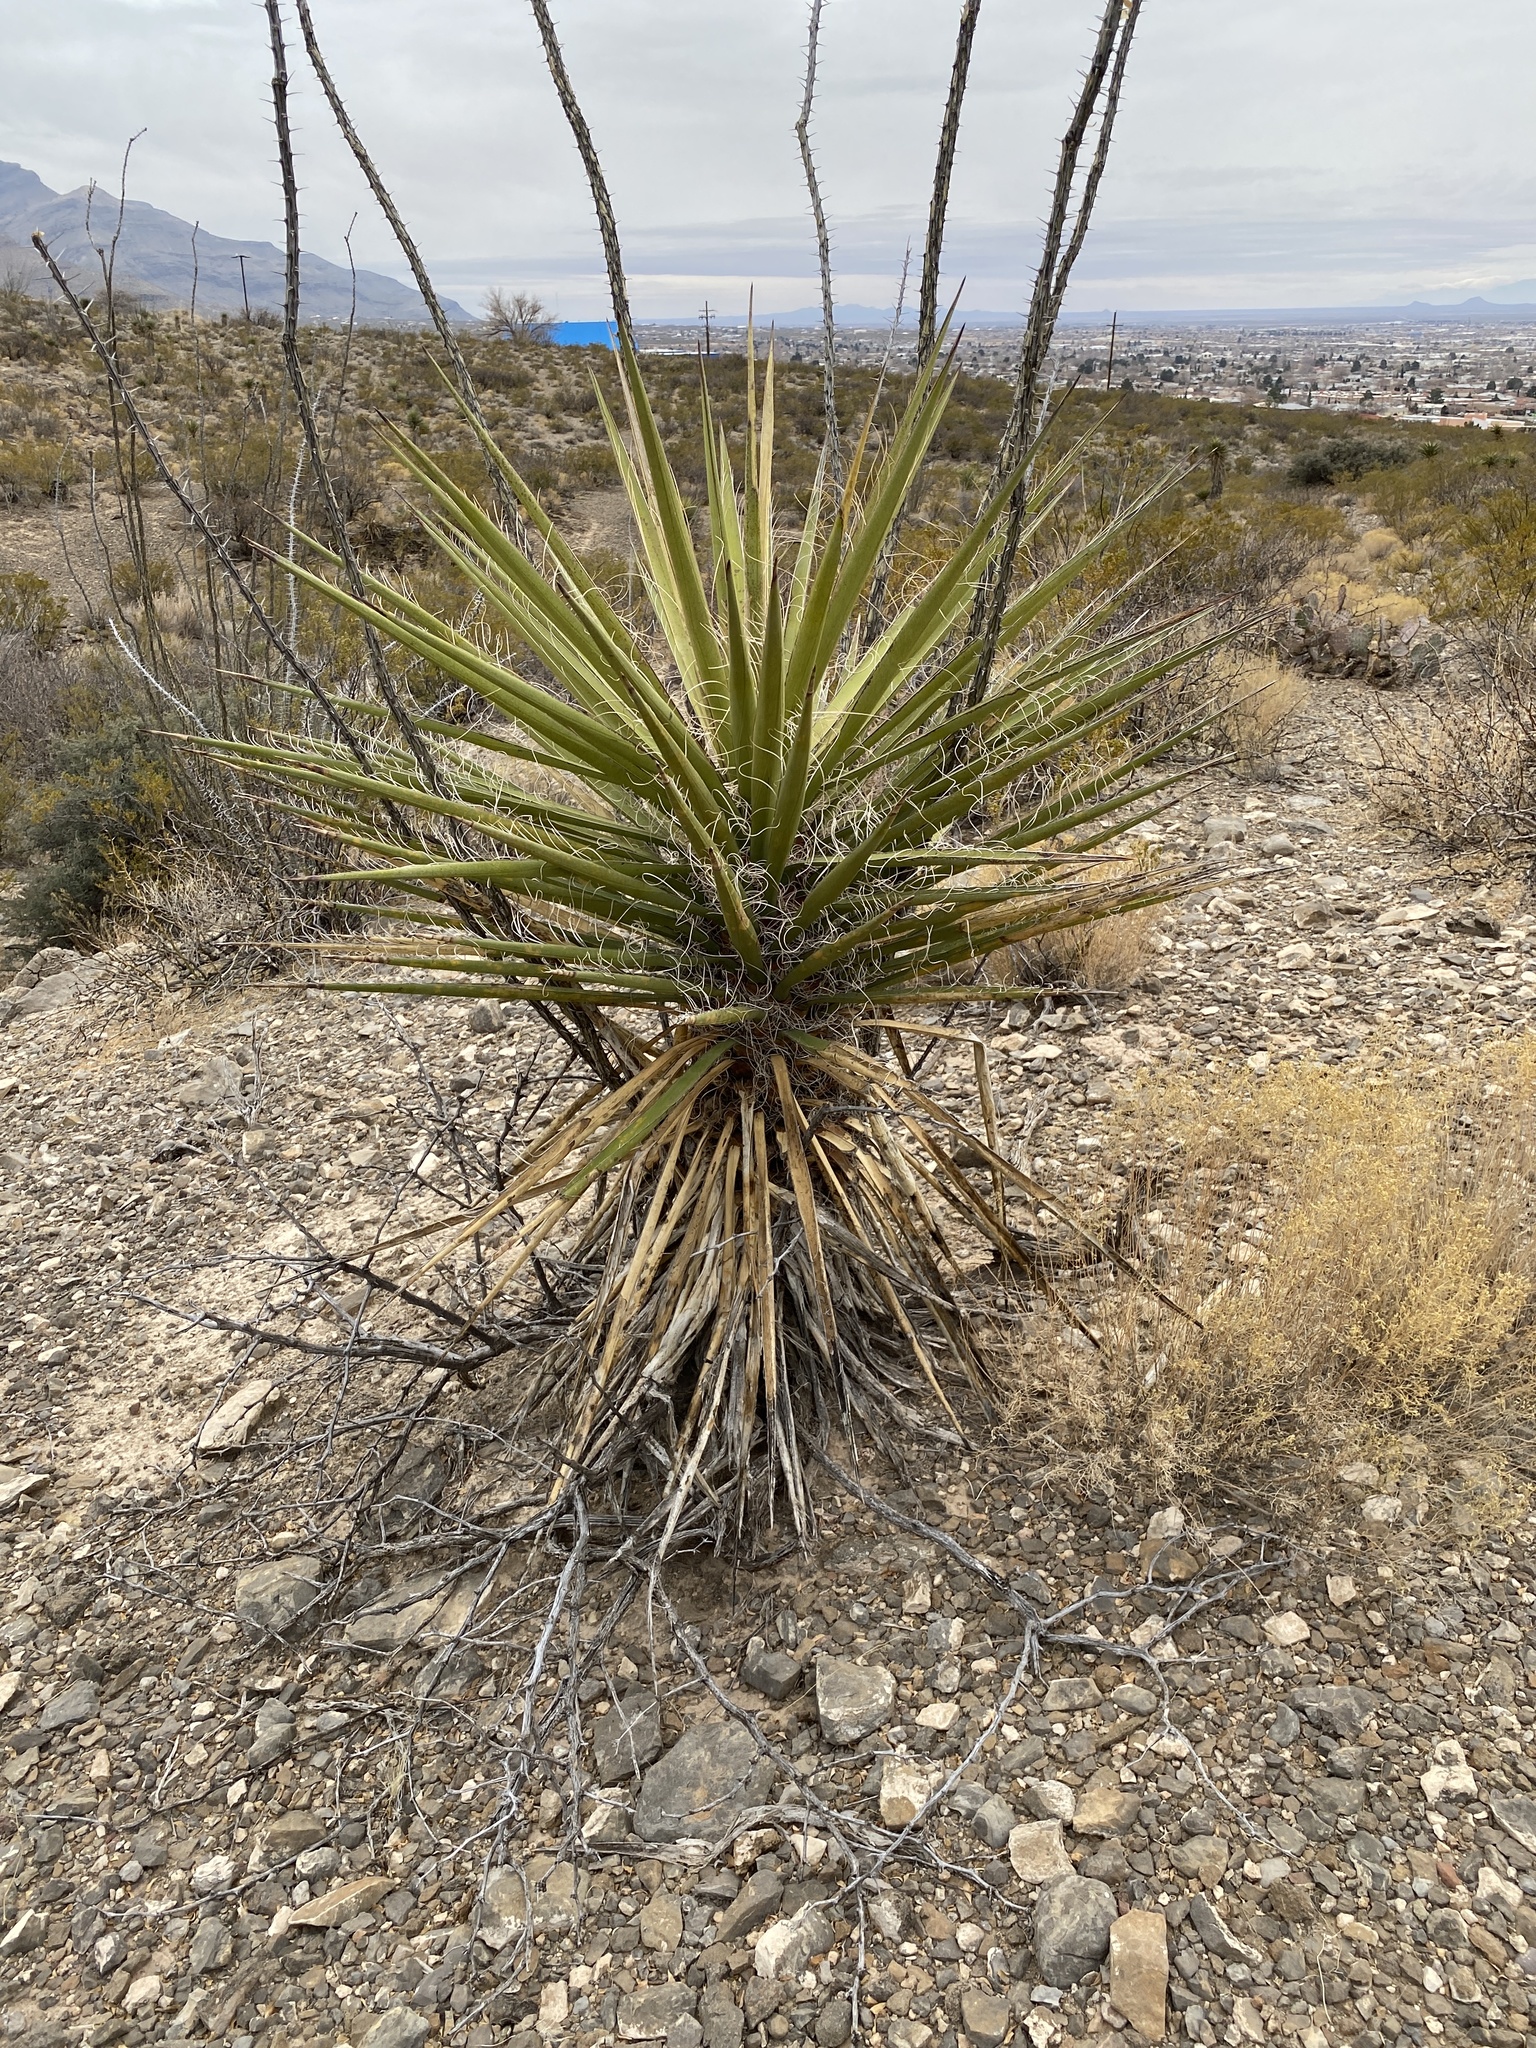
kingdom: Plantae
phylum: Tracheophyta
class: Liliopsida
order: Asparagales
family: Asparagaceae
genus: Yucca
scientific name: Yucca treculiana
